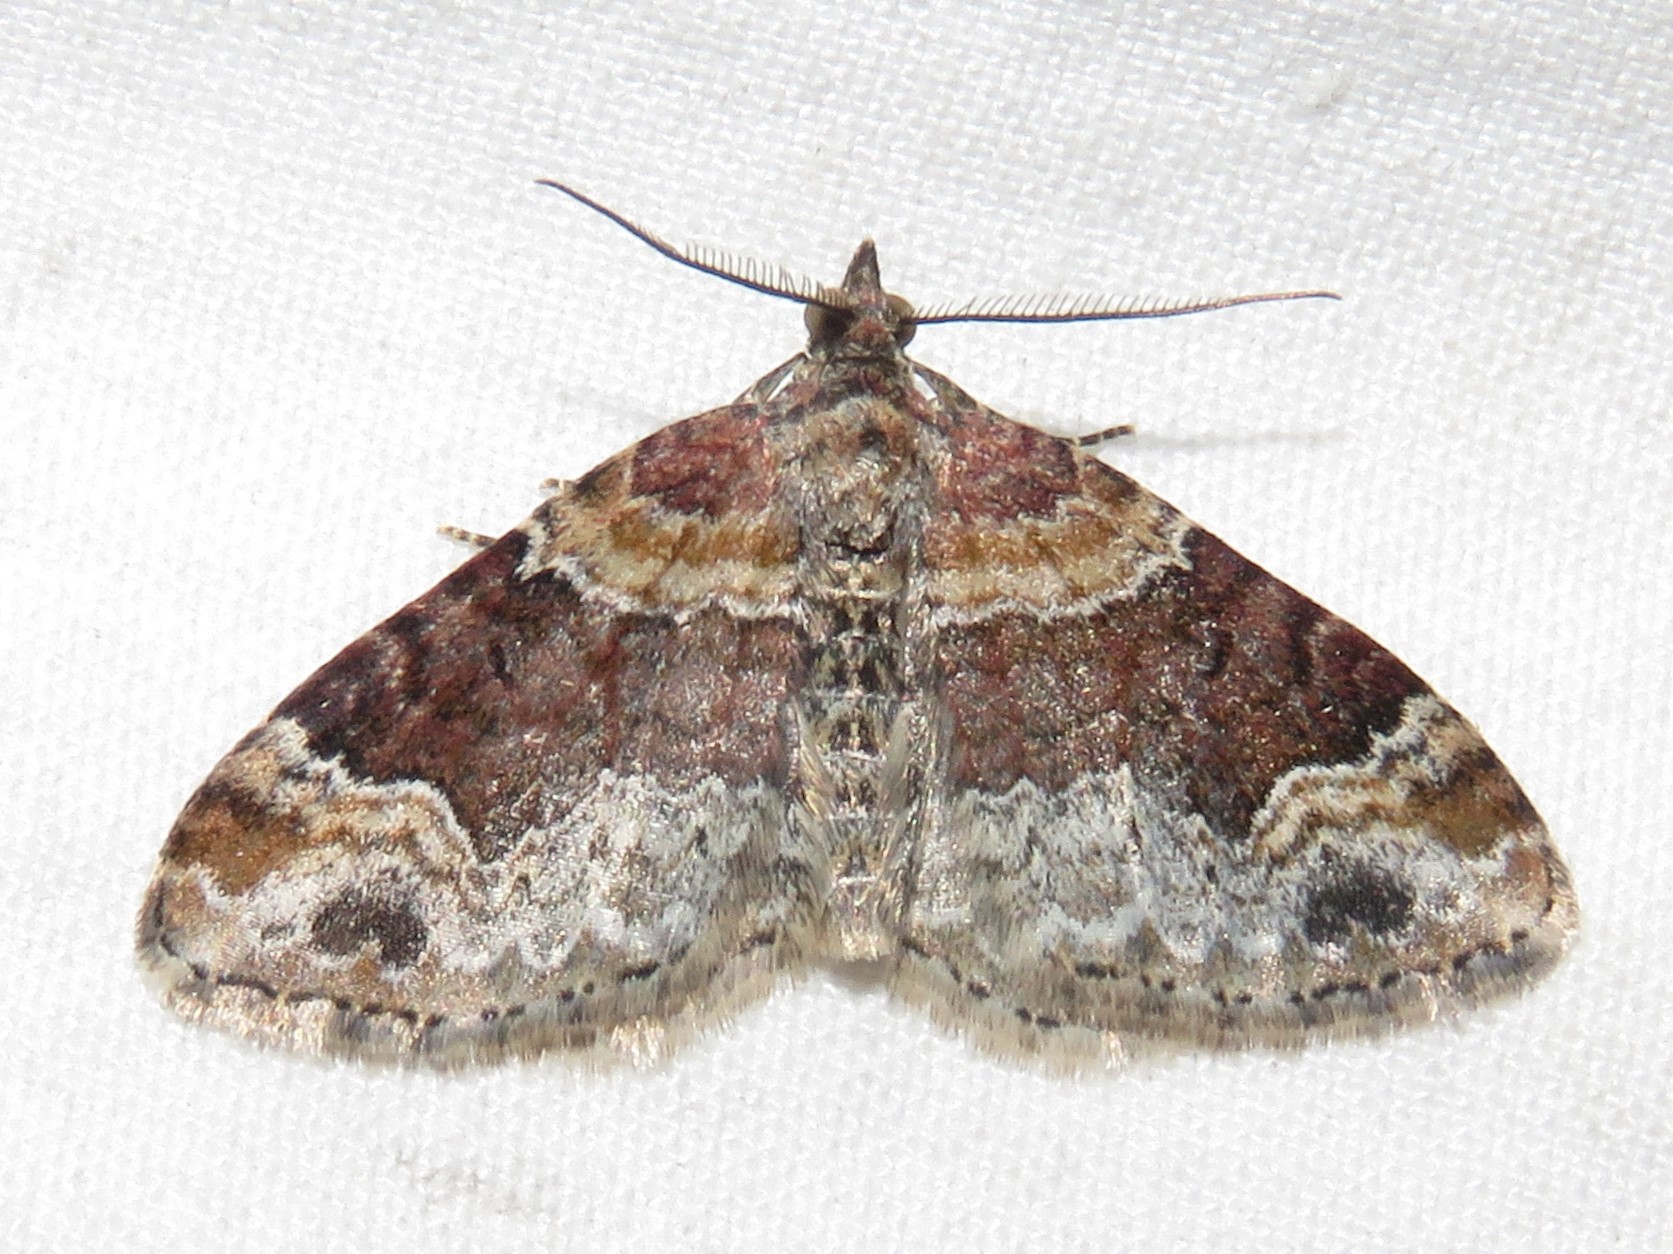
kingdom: Animalia
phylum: Arthropoda
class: Insecta
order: Lepidoptera
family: Geometridae
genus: Xanthorhoe
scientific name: Xanthorhoe ferrugata
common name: Dark-barred twin-spot carpet
